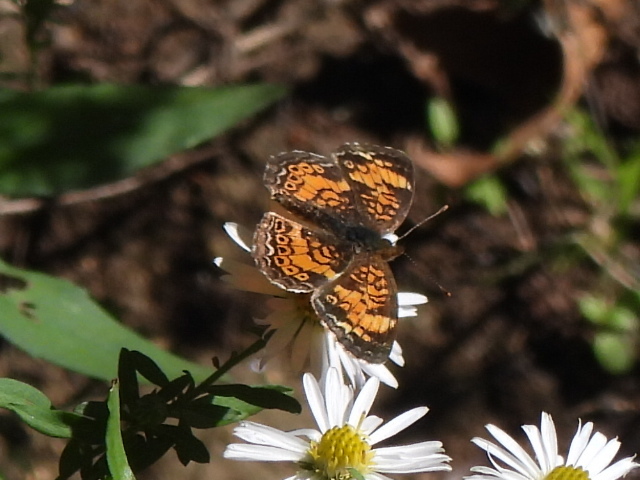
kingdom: Animalia
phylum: Arthropoda
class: Insecta
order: Lepidoptera
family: Nymphalidae
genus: Phyciodes
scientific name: Phyciodes tharos
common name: Pearl crescent
